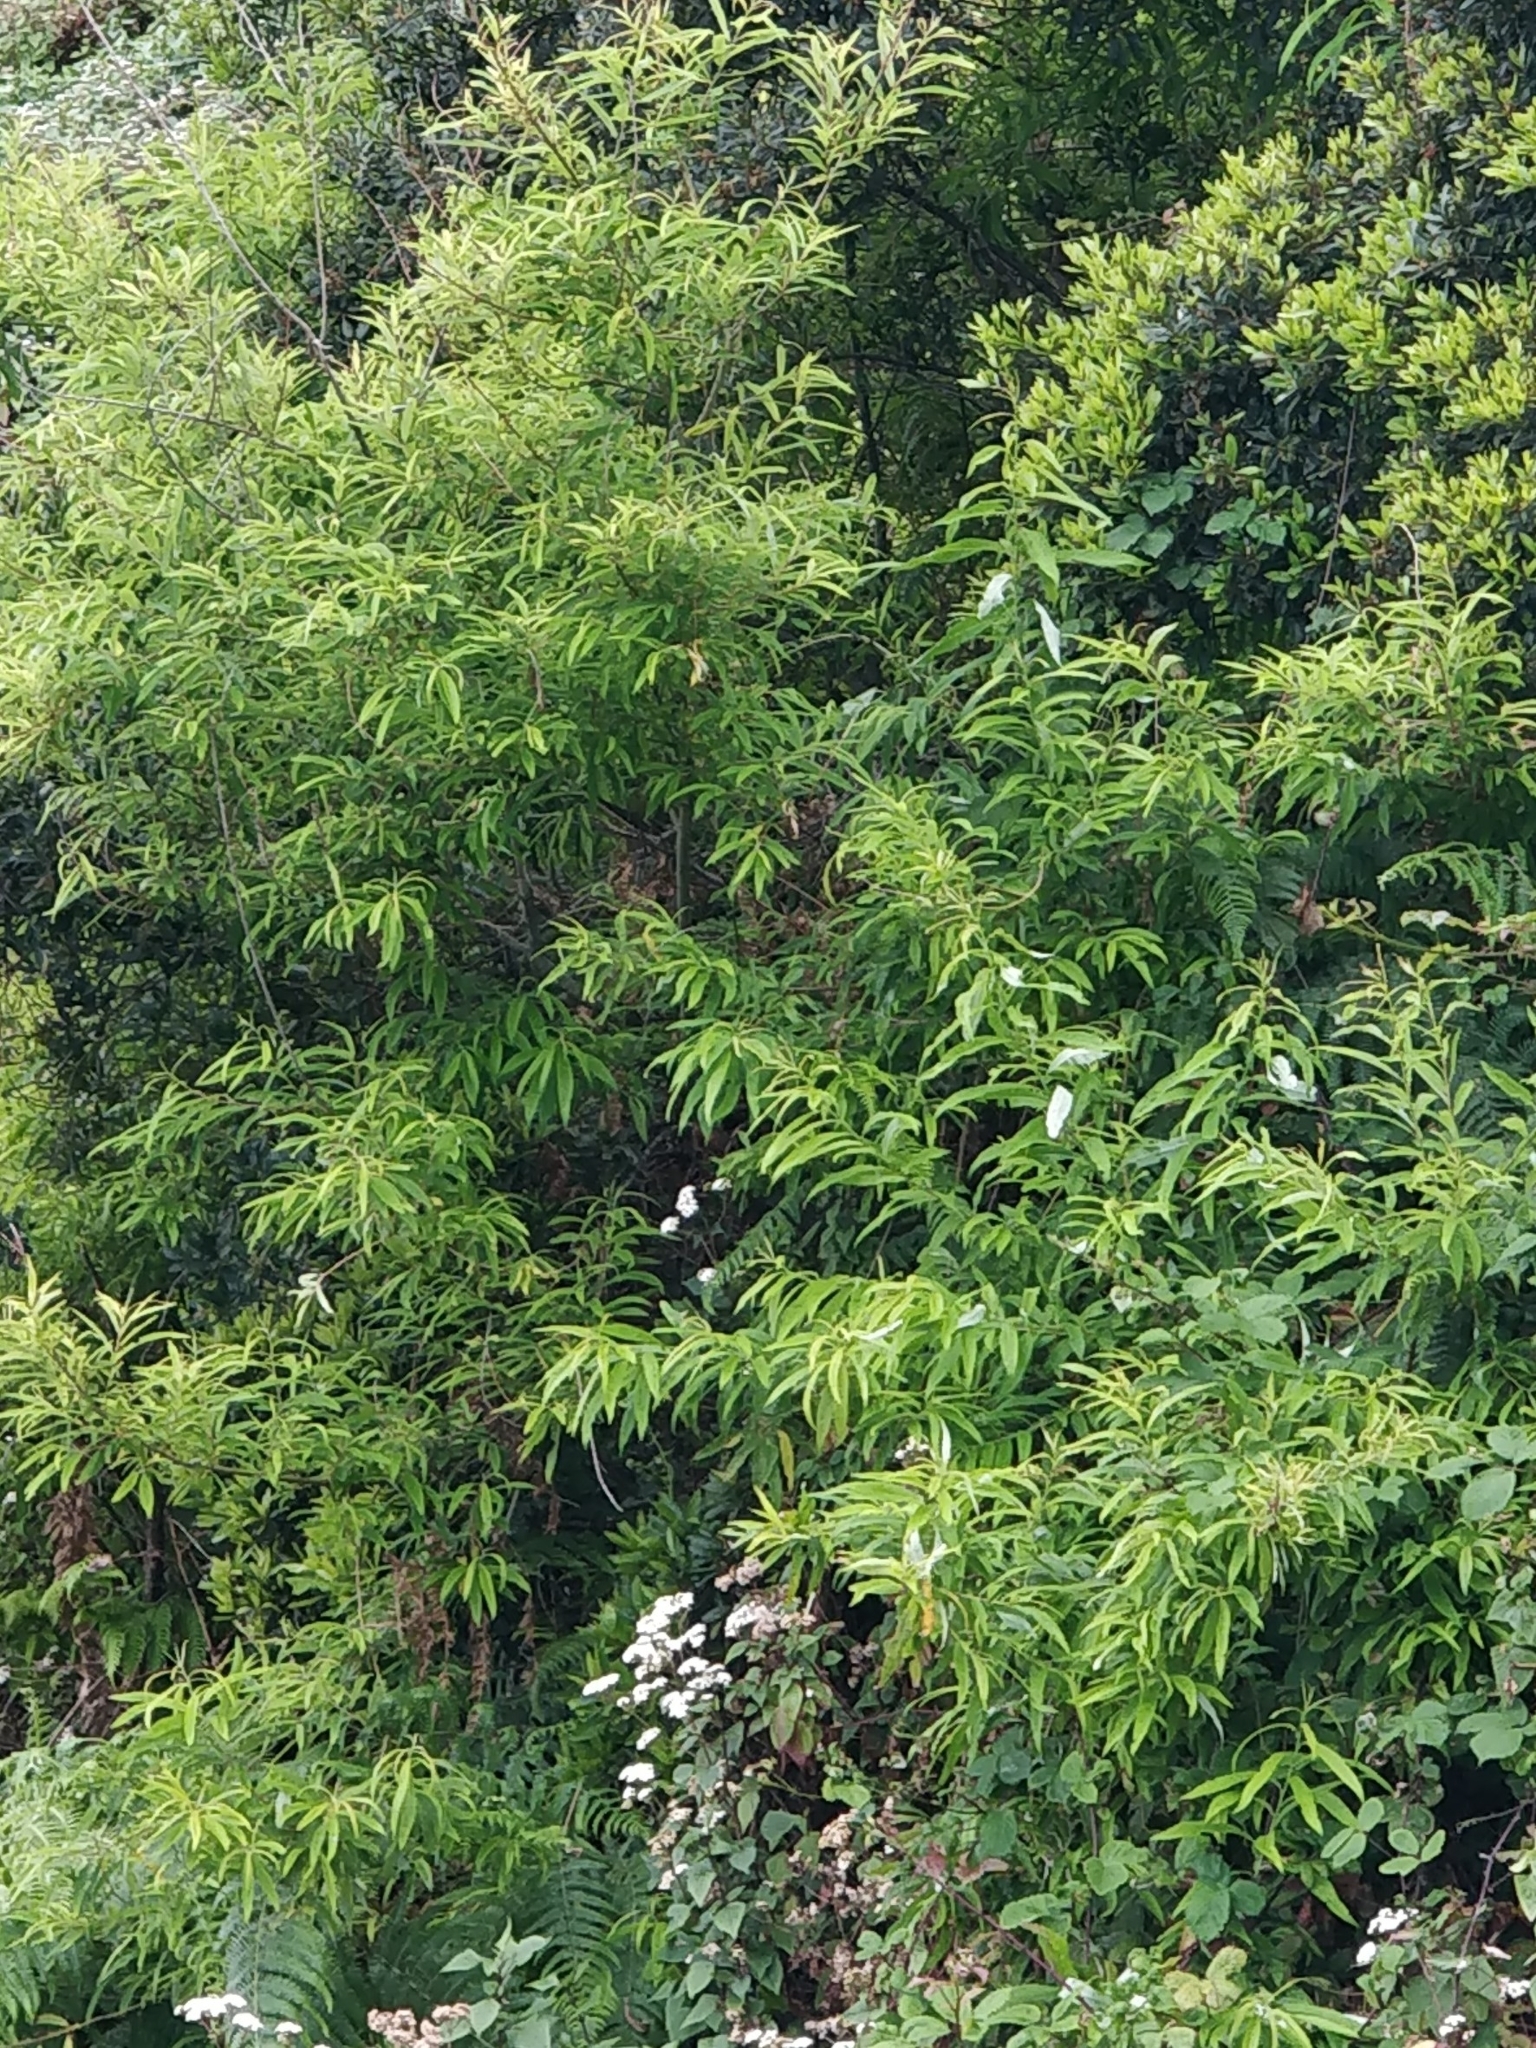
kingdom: Plantae
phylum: Tracheophyta
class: Magnoliopsida
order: Malpighiales
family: Salicaceae
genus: Salix
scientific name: Salix canariensis
